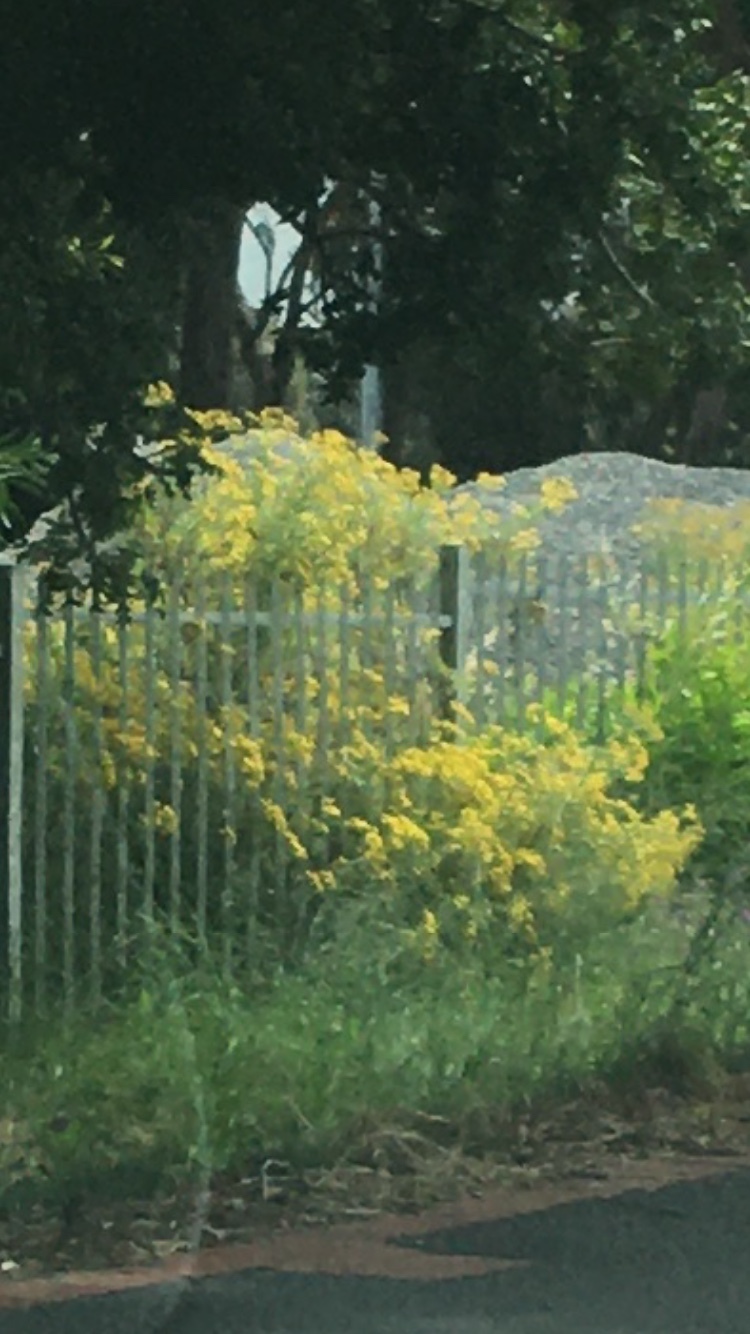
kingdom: Plantae
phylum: Tracheophyta
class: Magnoliopsida
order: Asterales
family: Asteraceae
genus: Senecio
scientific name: Senecio pterophorus
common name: Shoddy ragwort
